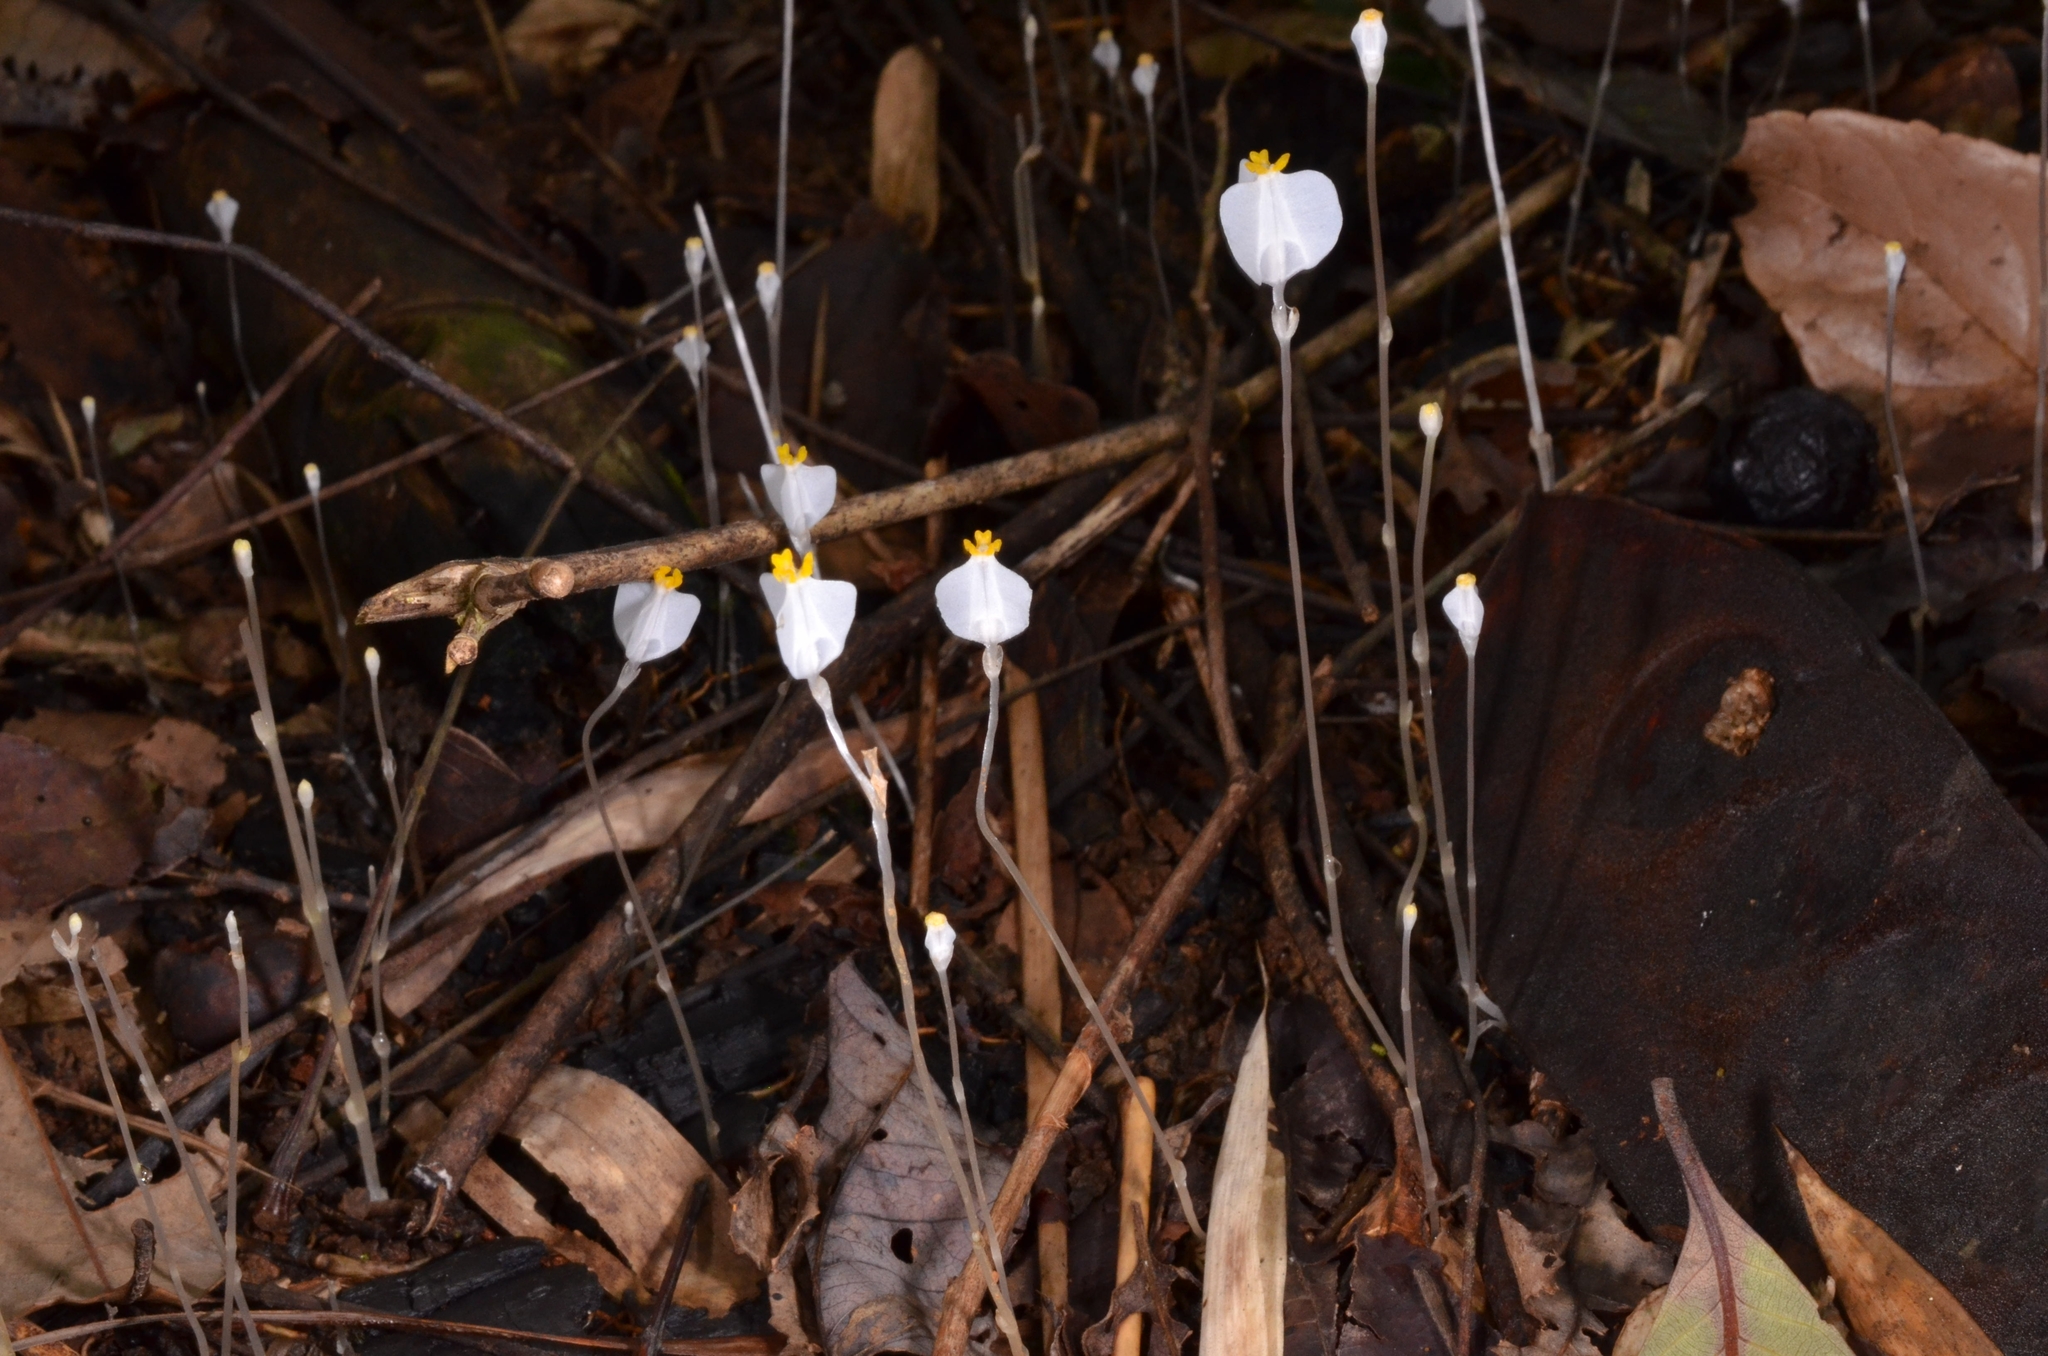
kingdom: Plantae
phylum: Tracheophyta
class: Liliopsida
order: Dioscoreales
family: Burmanniaceae
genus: Burmannia
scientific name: Burmannia oblonga
